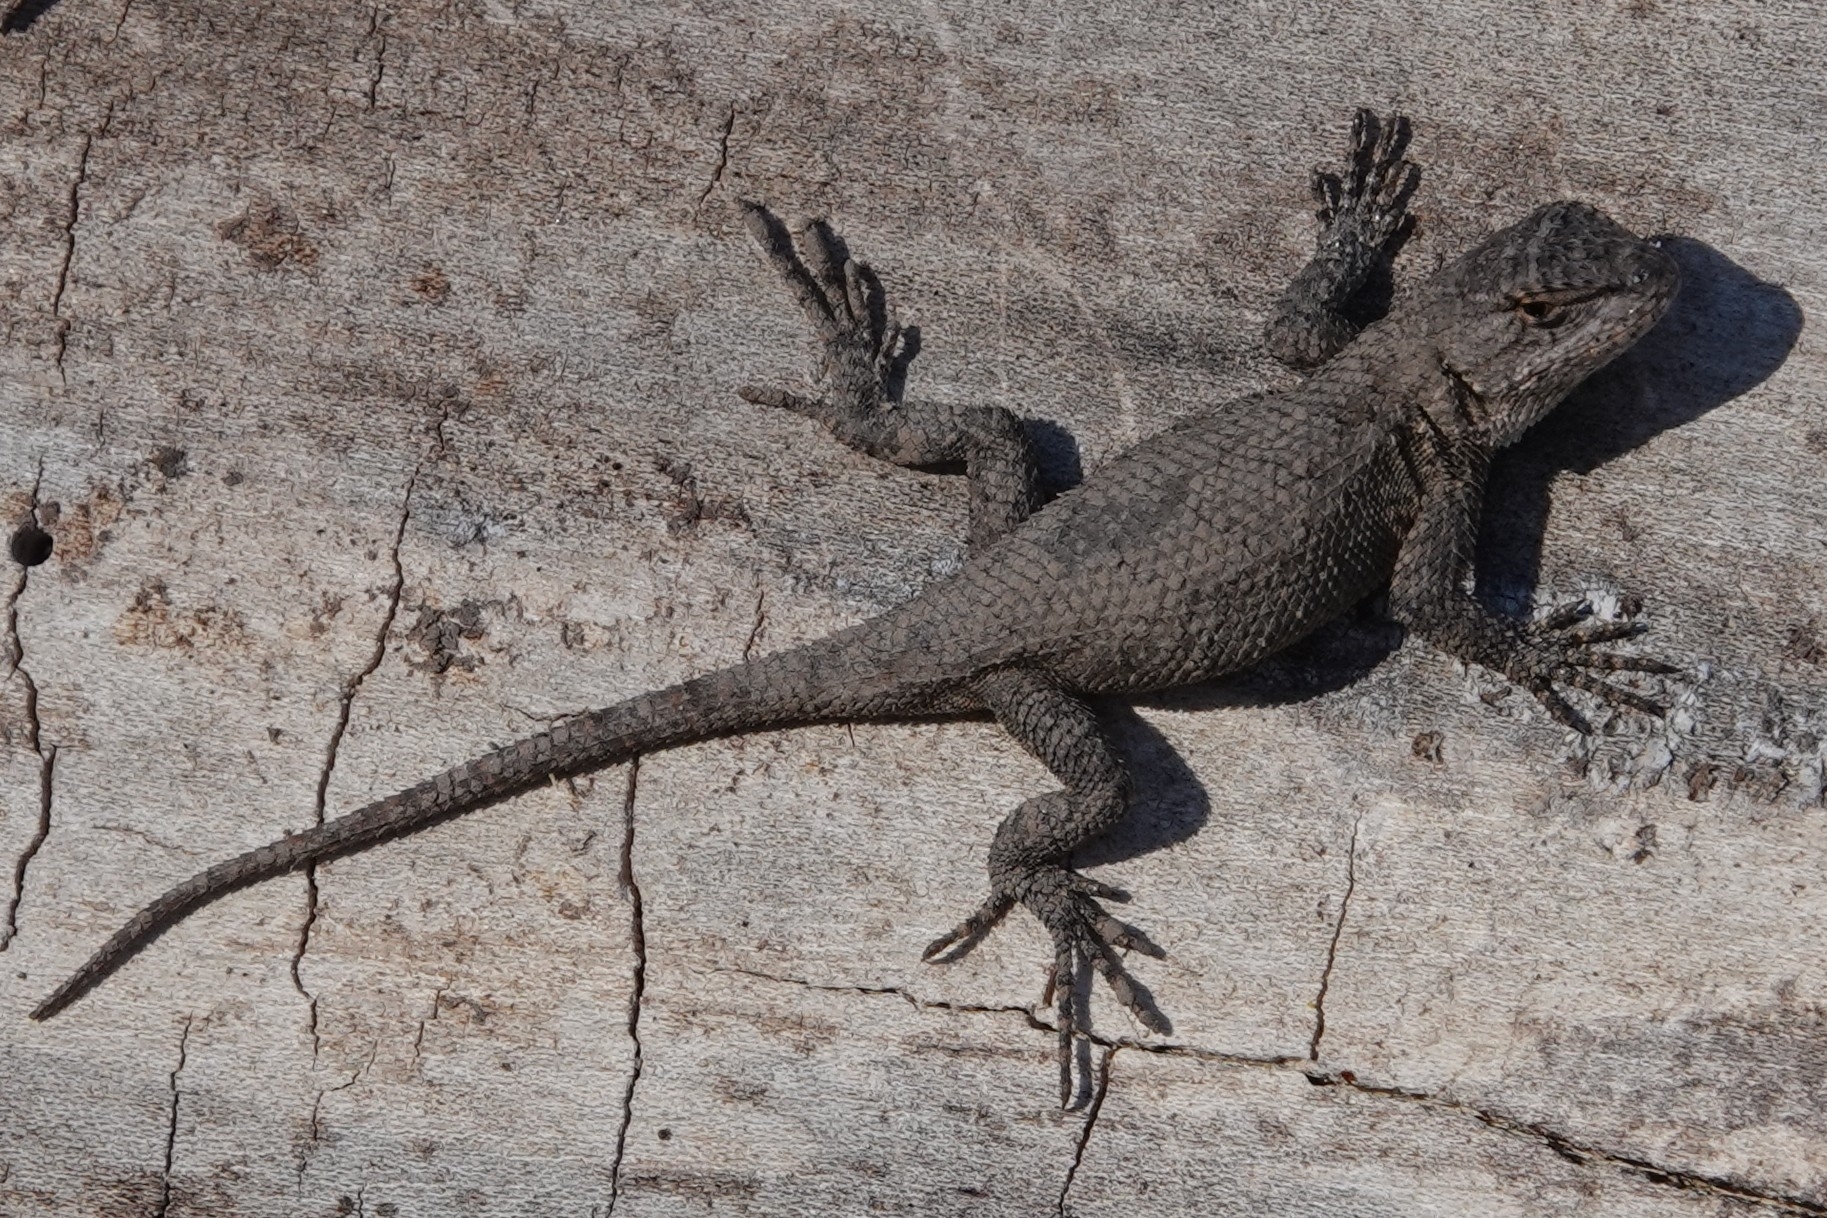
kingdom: Animalia
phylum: Chordata
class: Squamata
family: Phrynosomatidae
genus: Sceloporus
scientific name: Sceloporus consobrinus
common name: Southern prairie lizard
